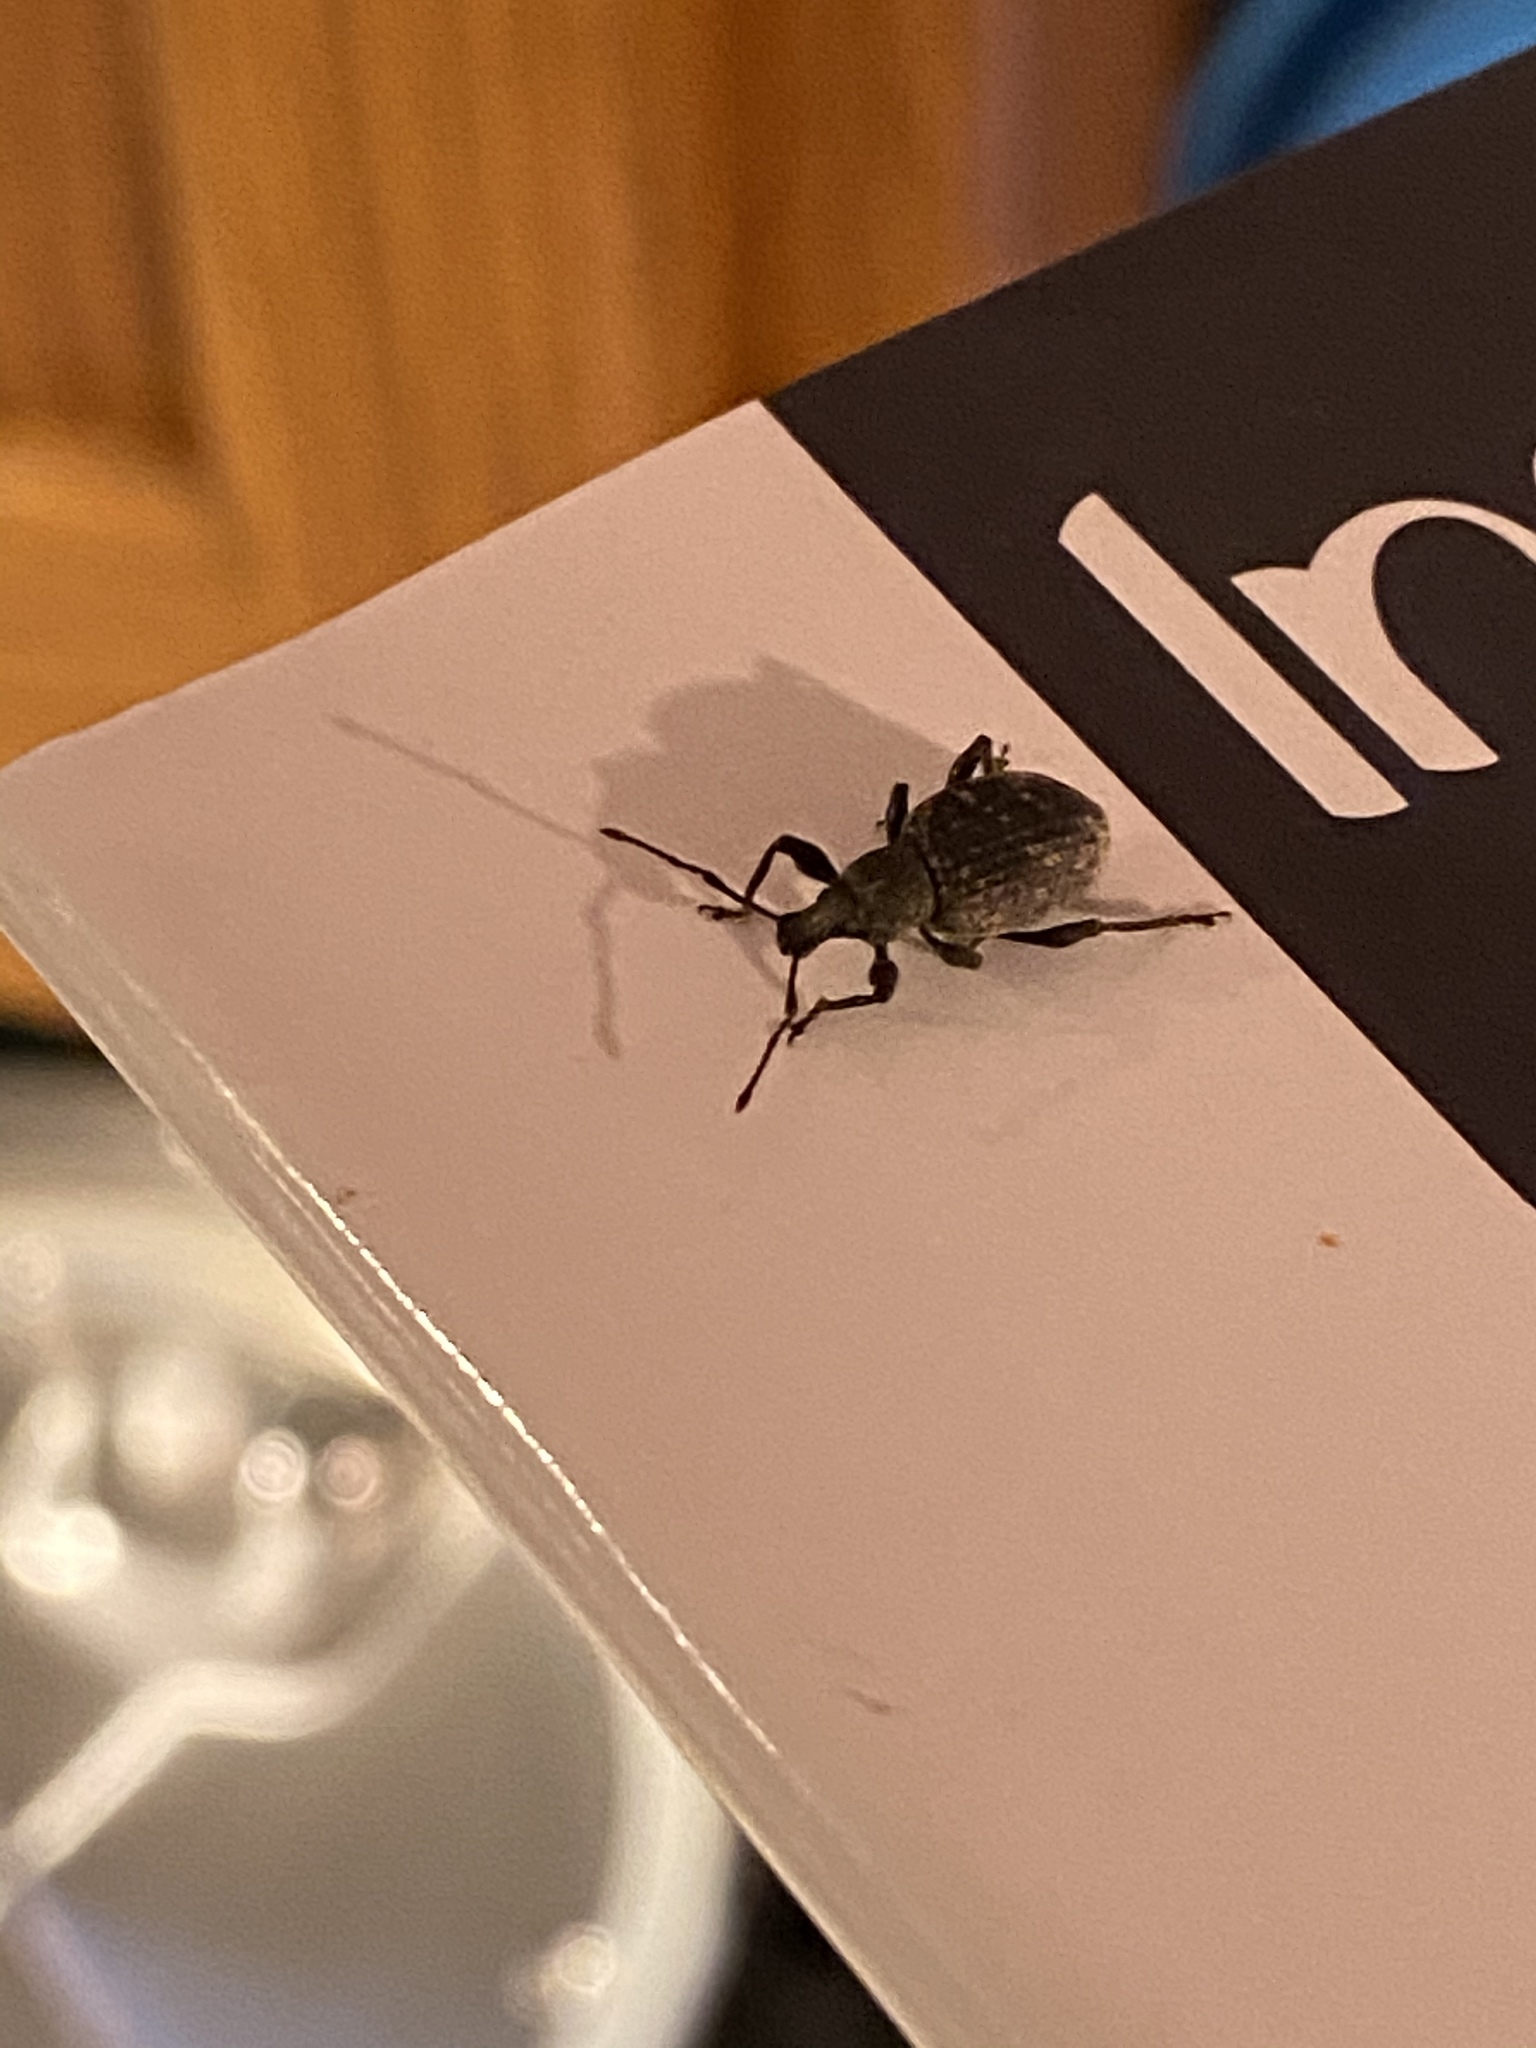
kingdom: Animalia
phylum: Arthropoda
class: Insecta
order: Coleoptera
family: Curculionidae
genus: Otiorhynchus
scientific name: Otiorhynchus sulcatus
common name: Black vine weevil
